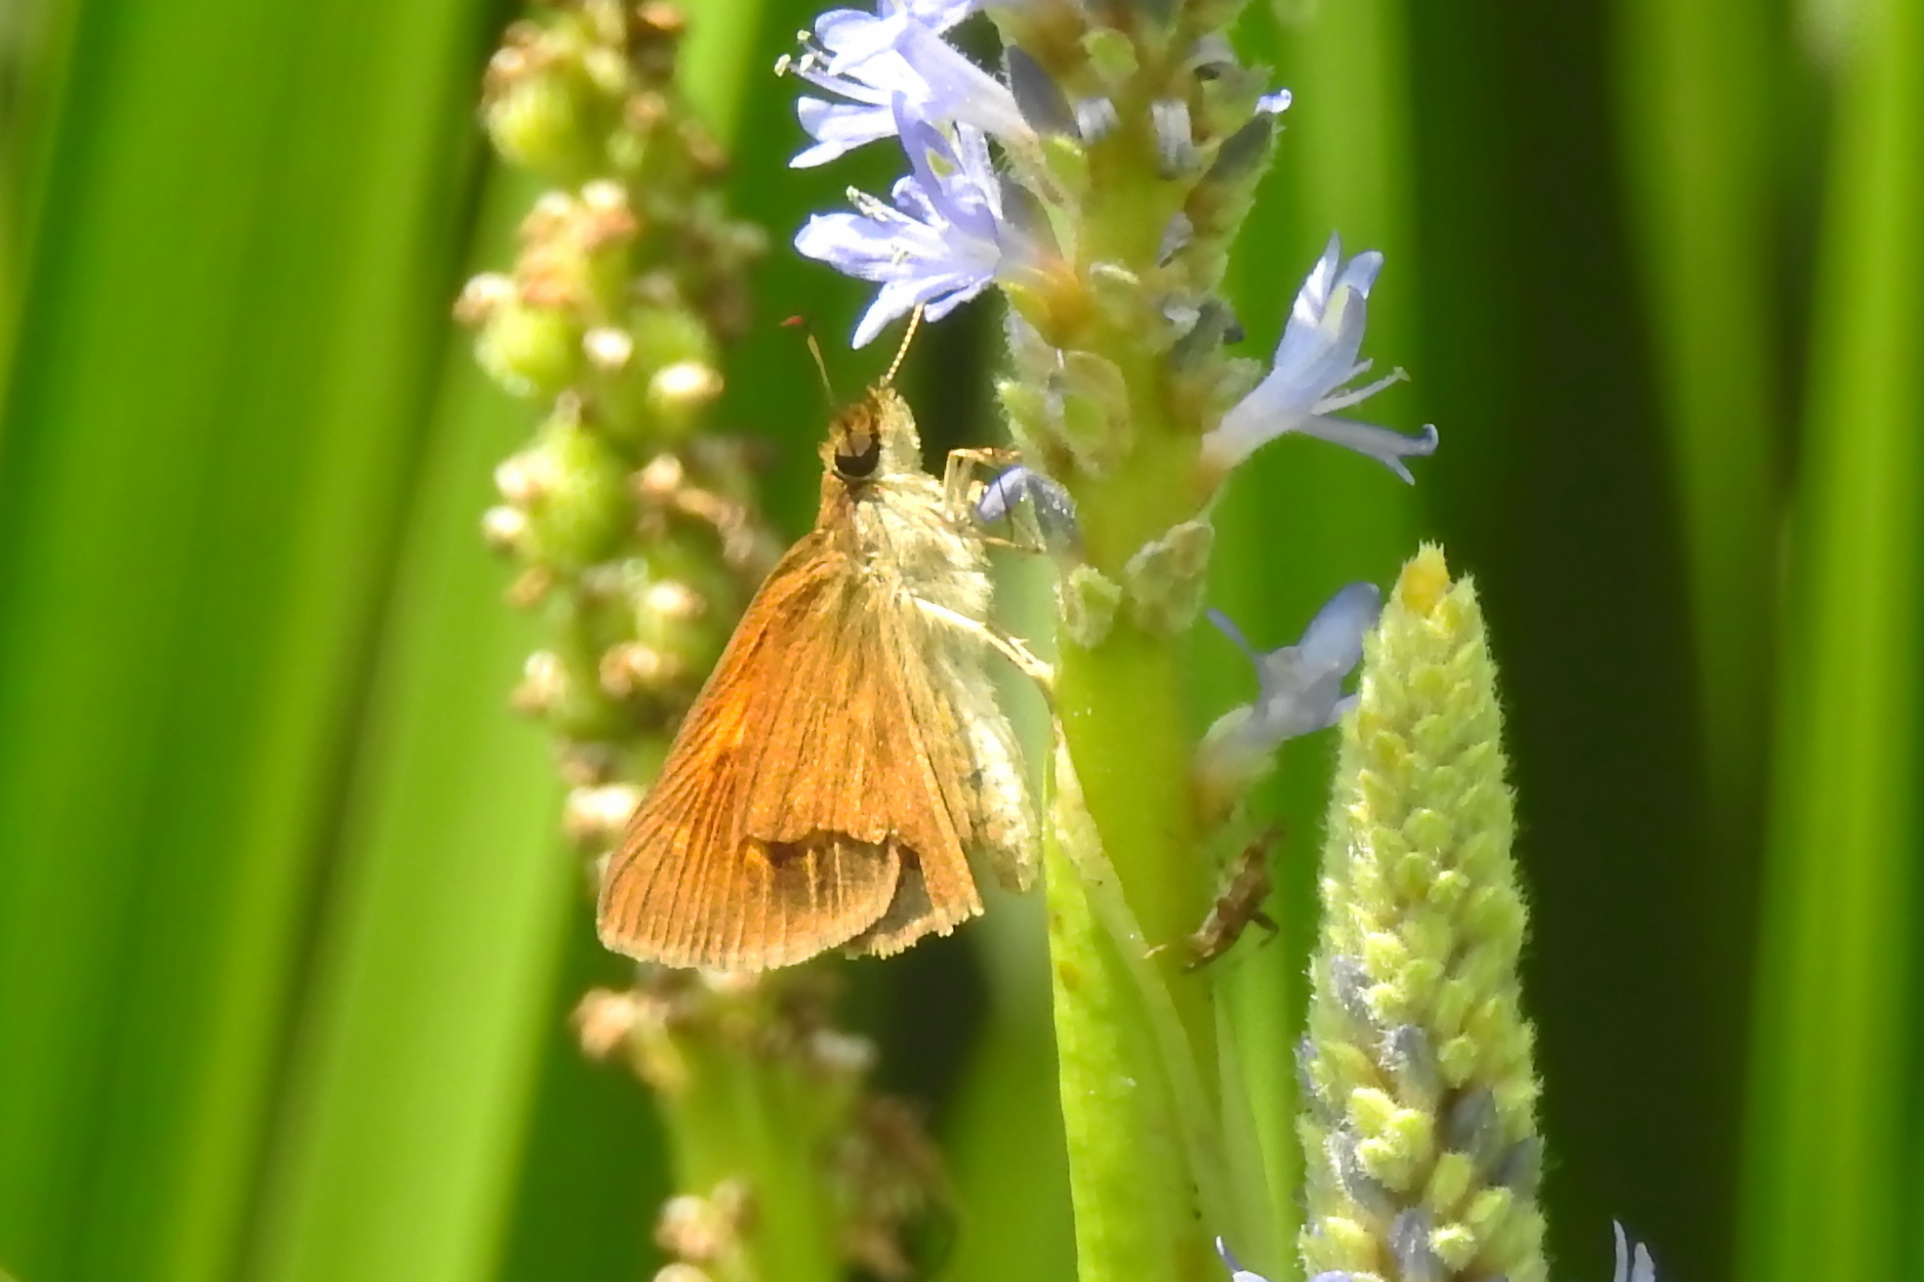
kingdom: Animalia
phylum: Arthropoda
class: Insecta
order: Lepidoptera
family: Hesperiidae
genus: Poanes
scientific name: Poanes viator
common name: Broad-winged skipper
